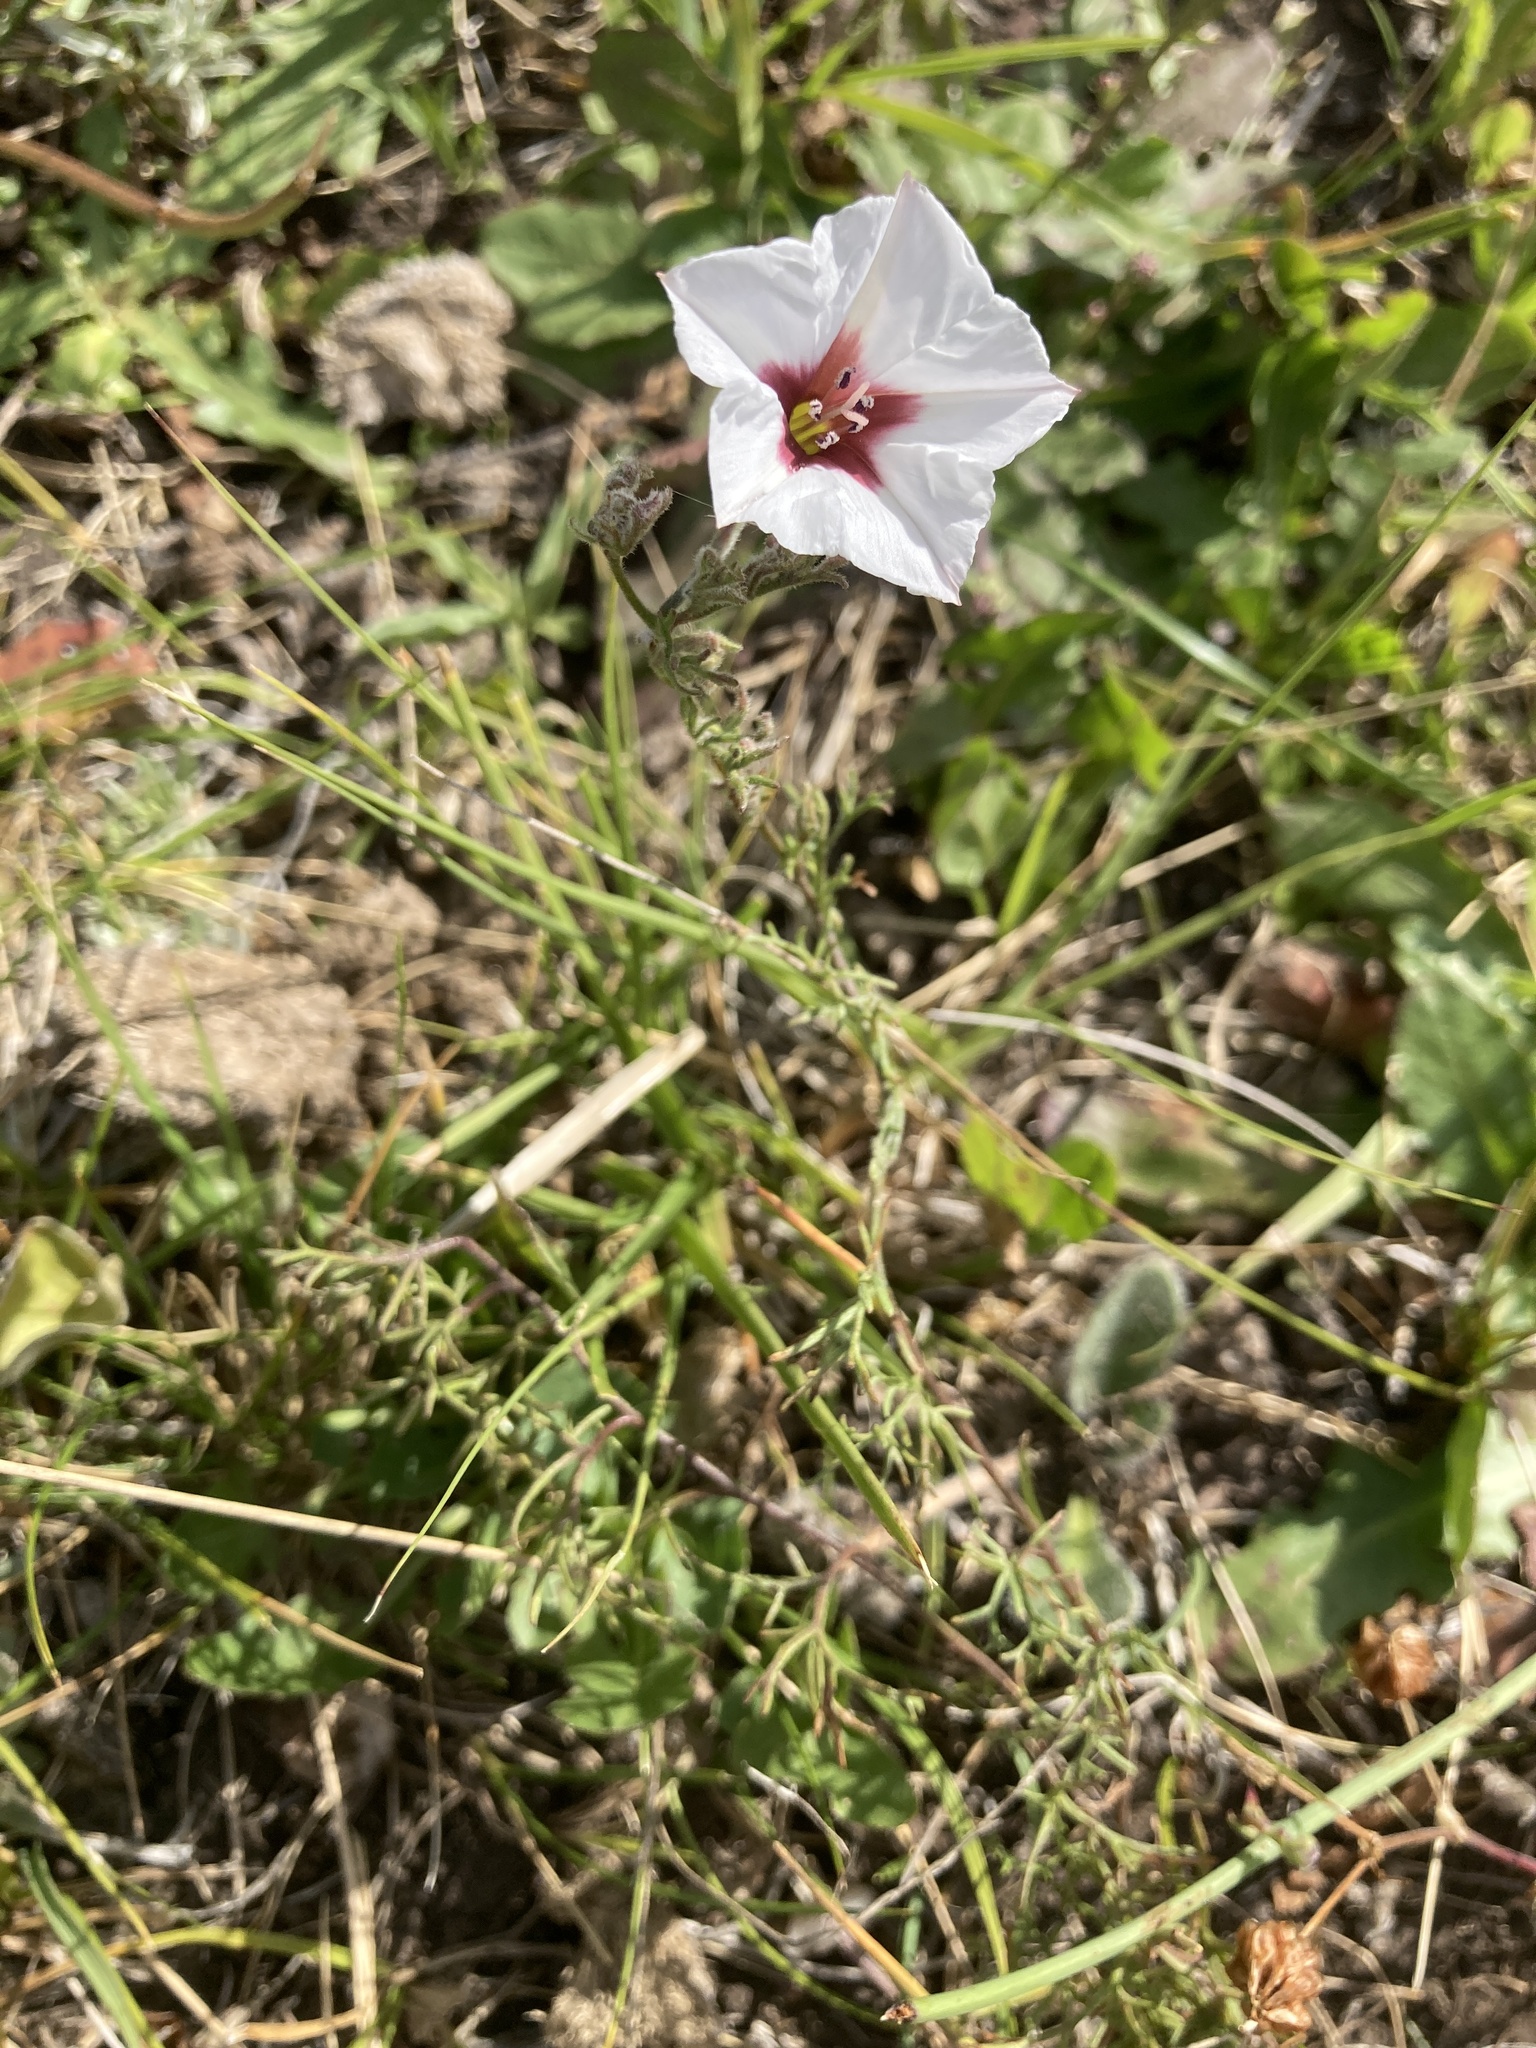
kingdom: Plantae
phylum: Tracheophyta
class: Magnoliopsida
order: Solanales
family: Convolvulaceae
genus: Convolvulus
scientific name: Convolvulus laciniatus
